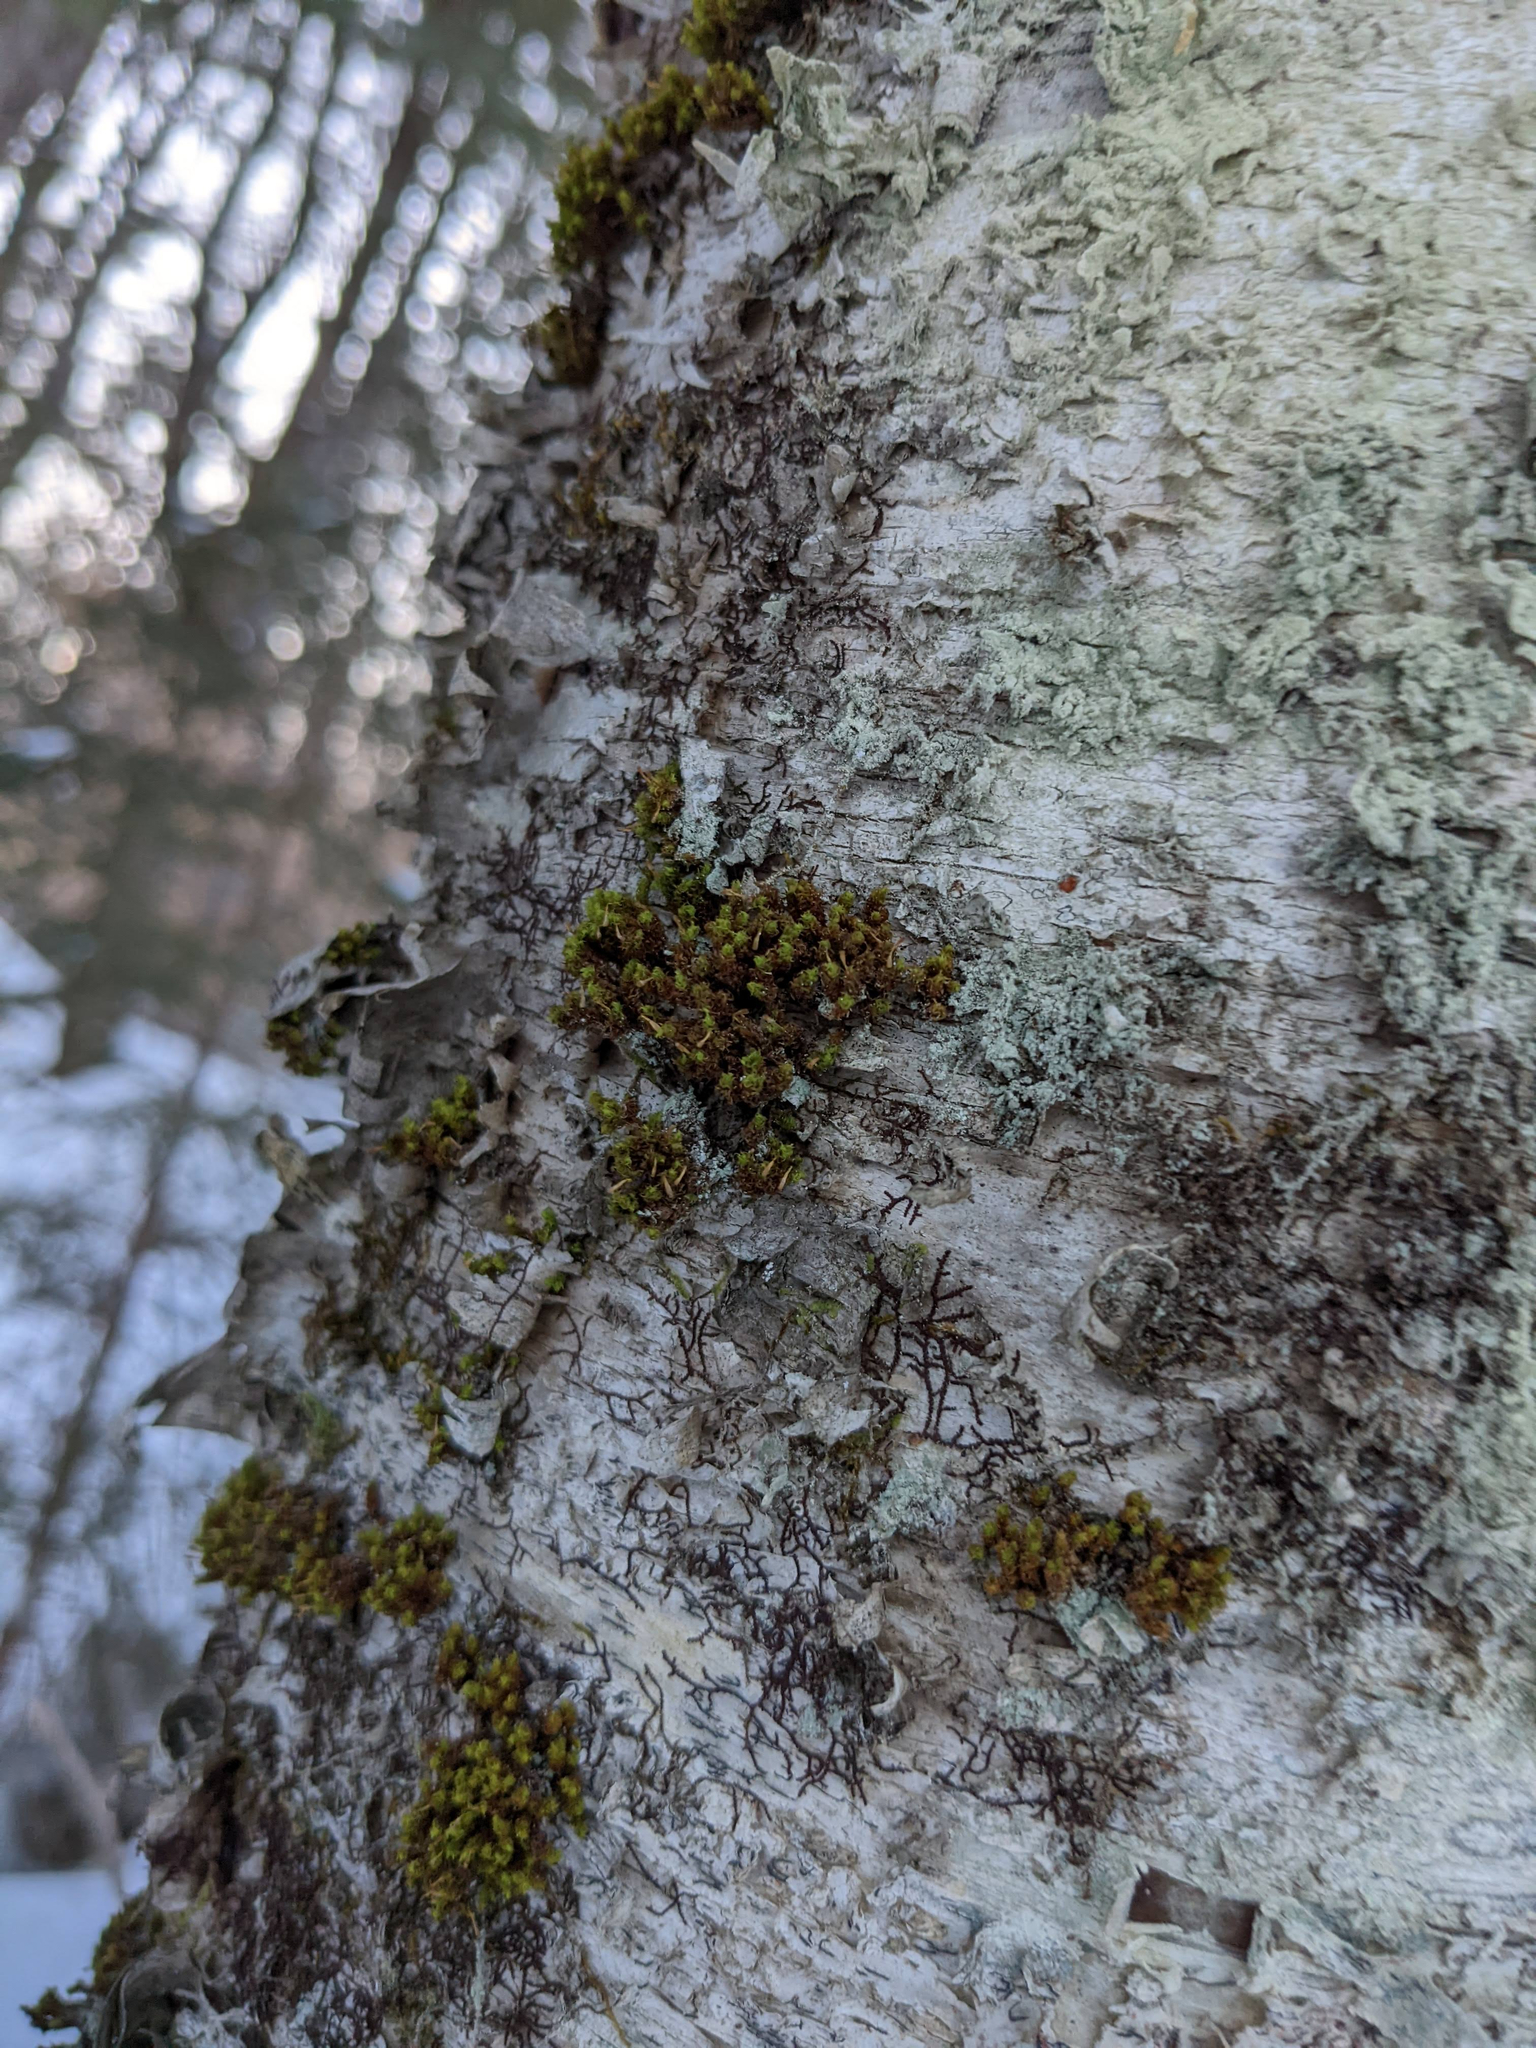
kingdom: Plantae
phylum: Bryophyta
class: Bryopsida
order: Orthotrichales
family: Orthotrichaceae
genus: Ulota
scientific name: Ulota crispa
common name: Crisped pincushion moss
